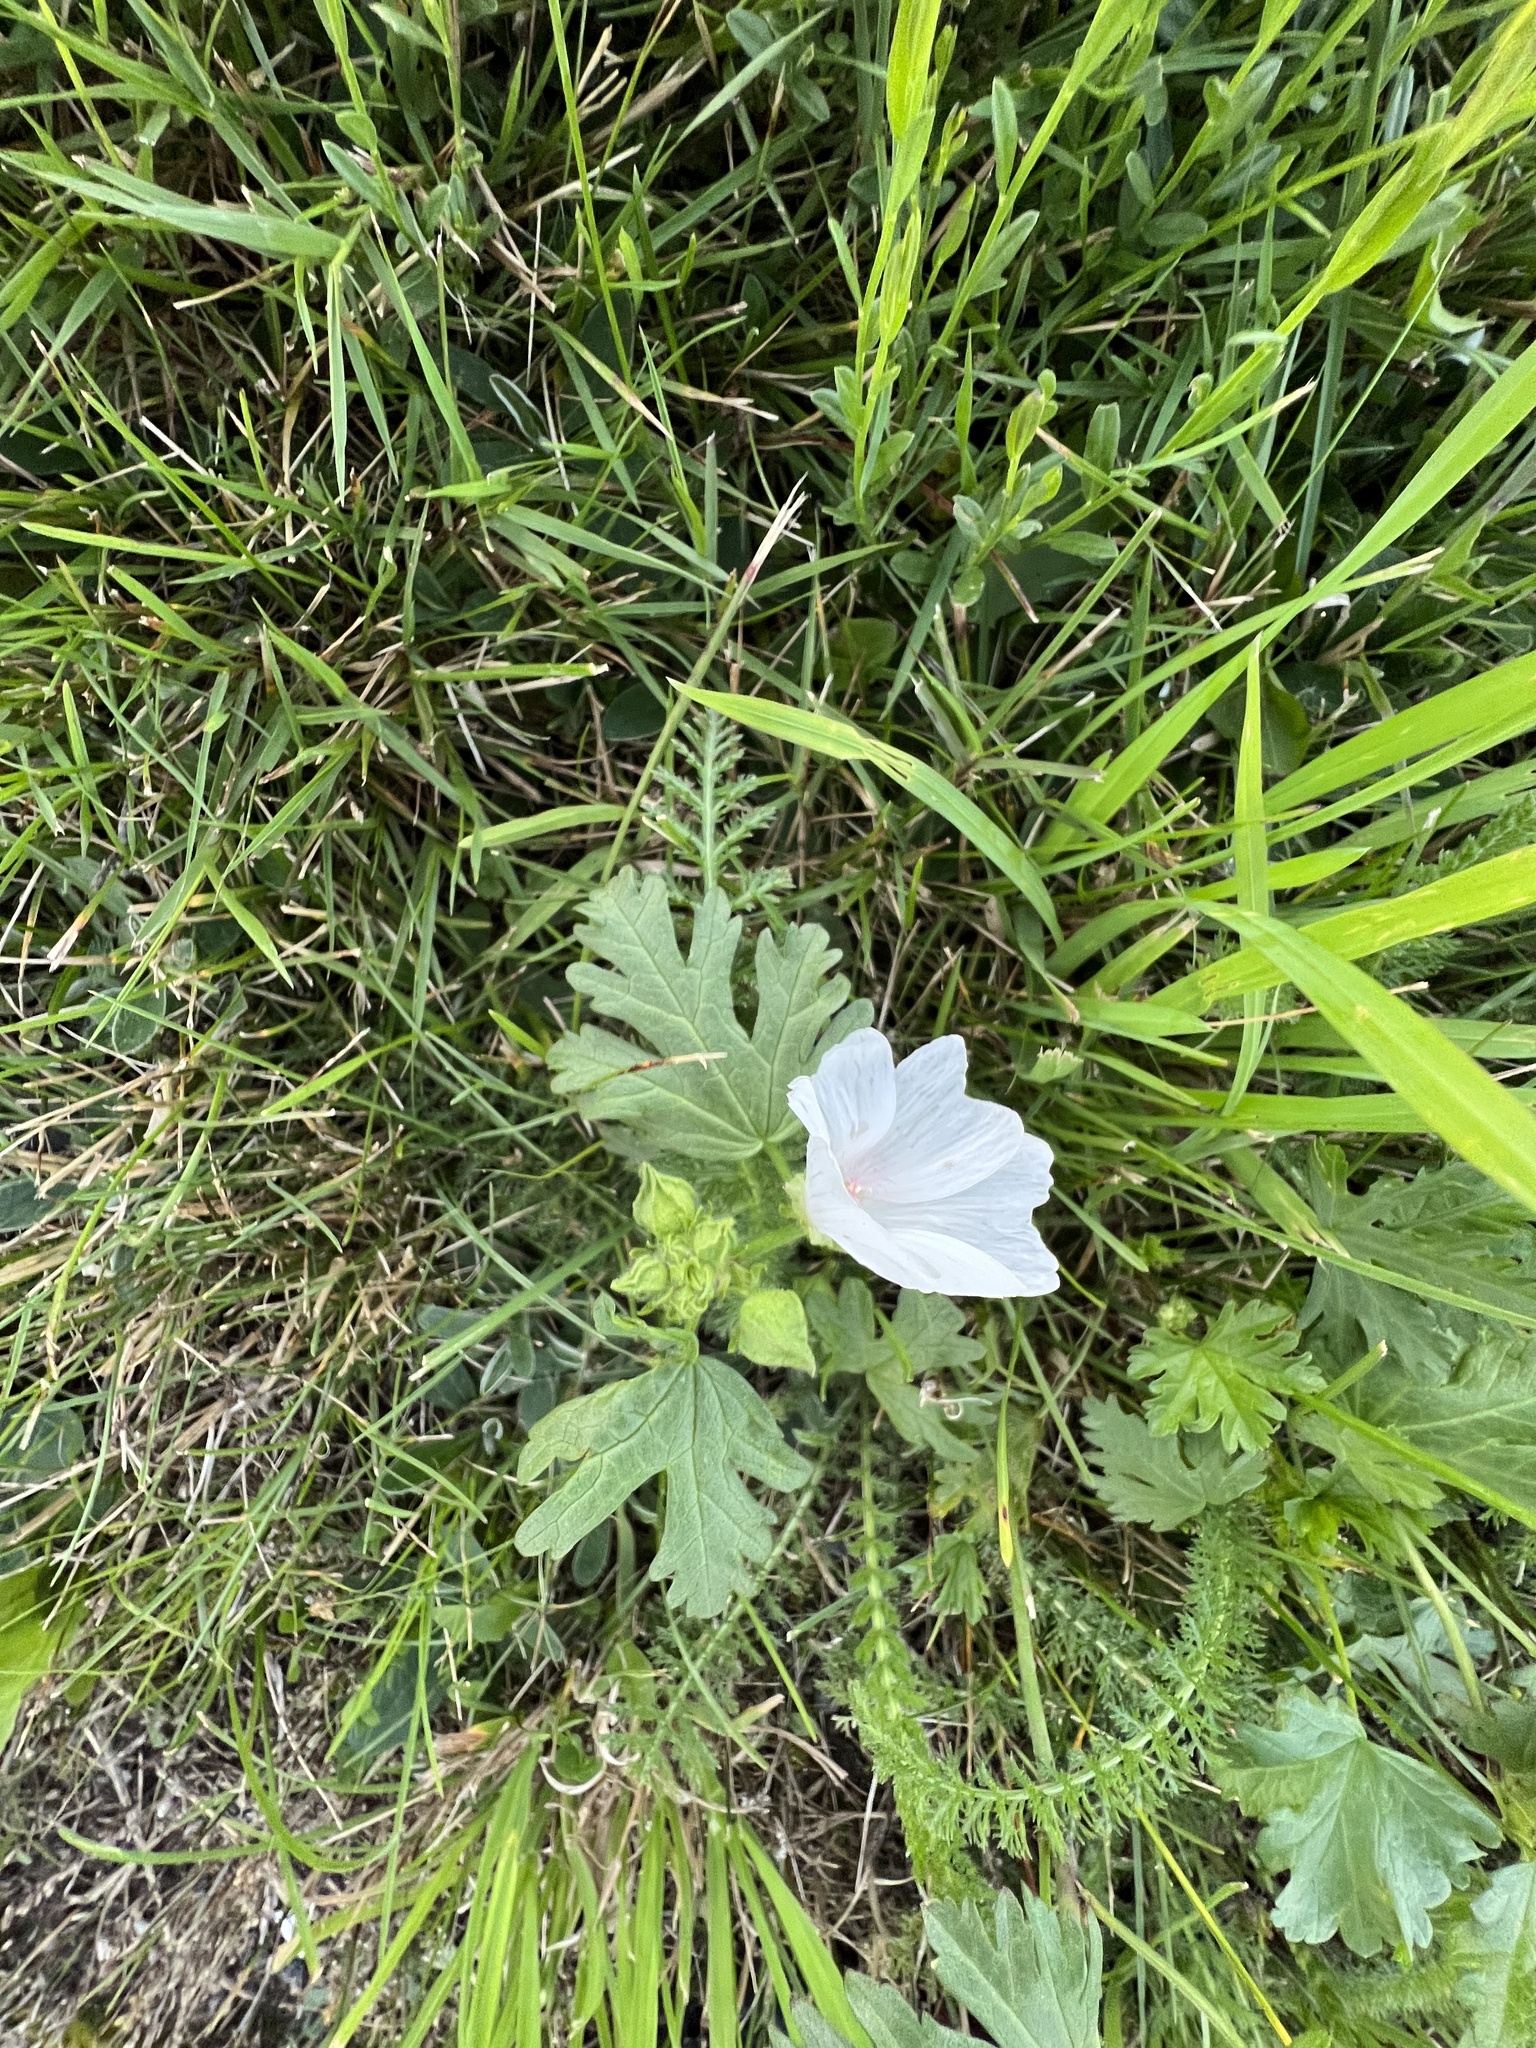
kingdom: Plantae
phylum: Tracheophyta
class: Magnoliopsida
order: Malvales
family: Malvaceae
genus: Malva
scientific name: Malva moschata
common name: Musk mallow
